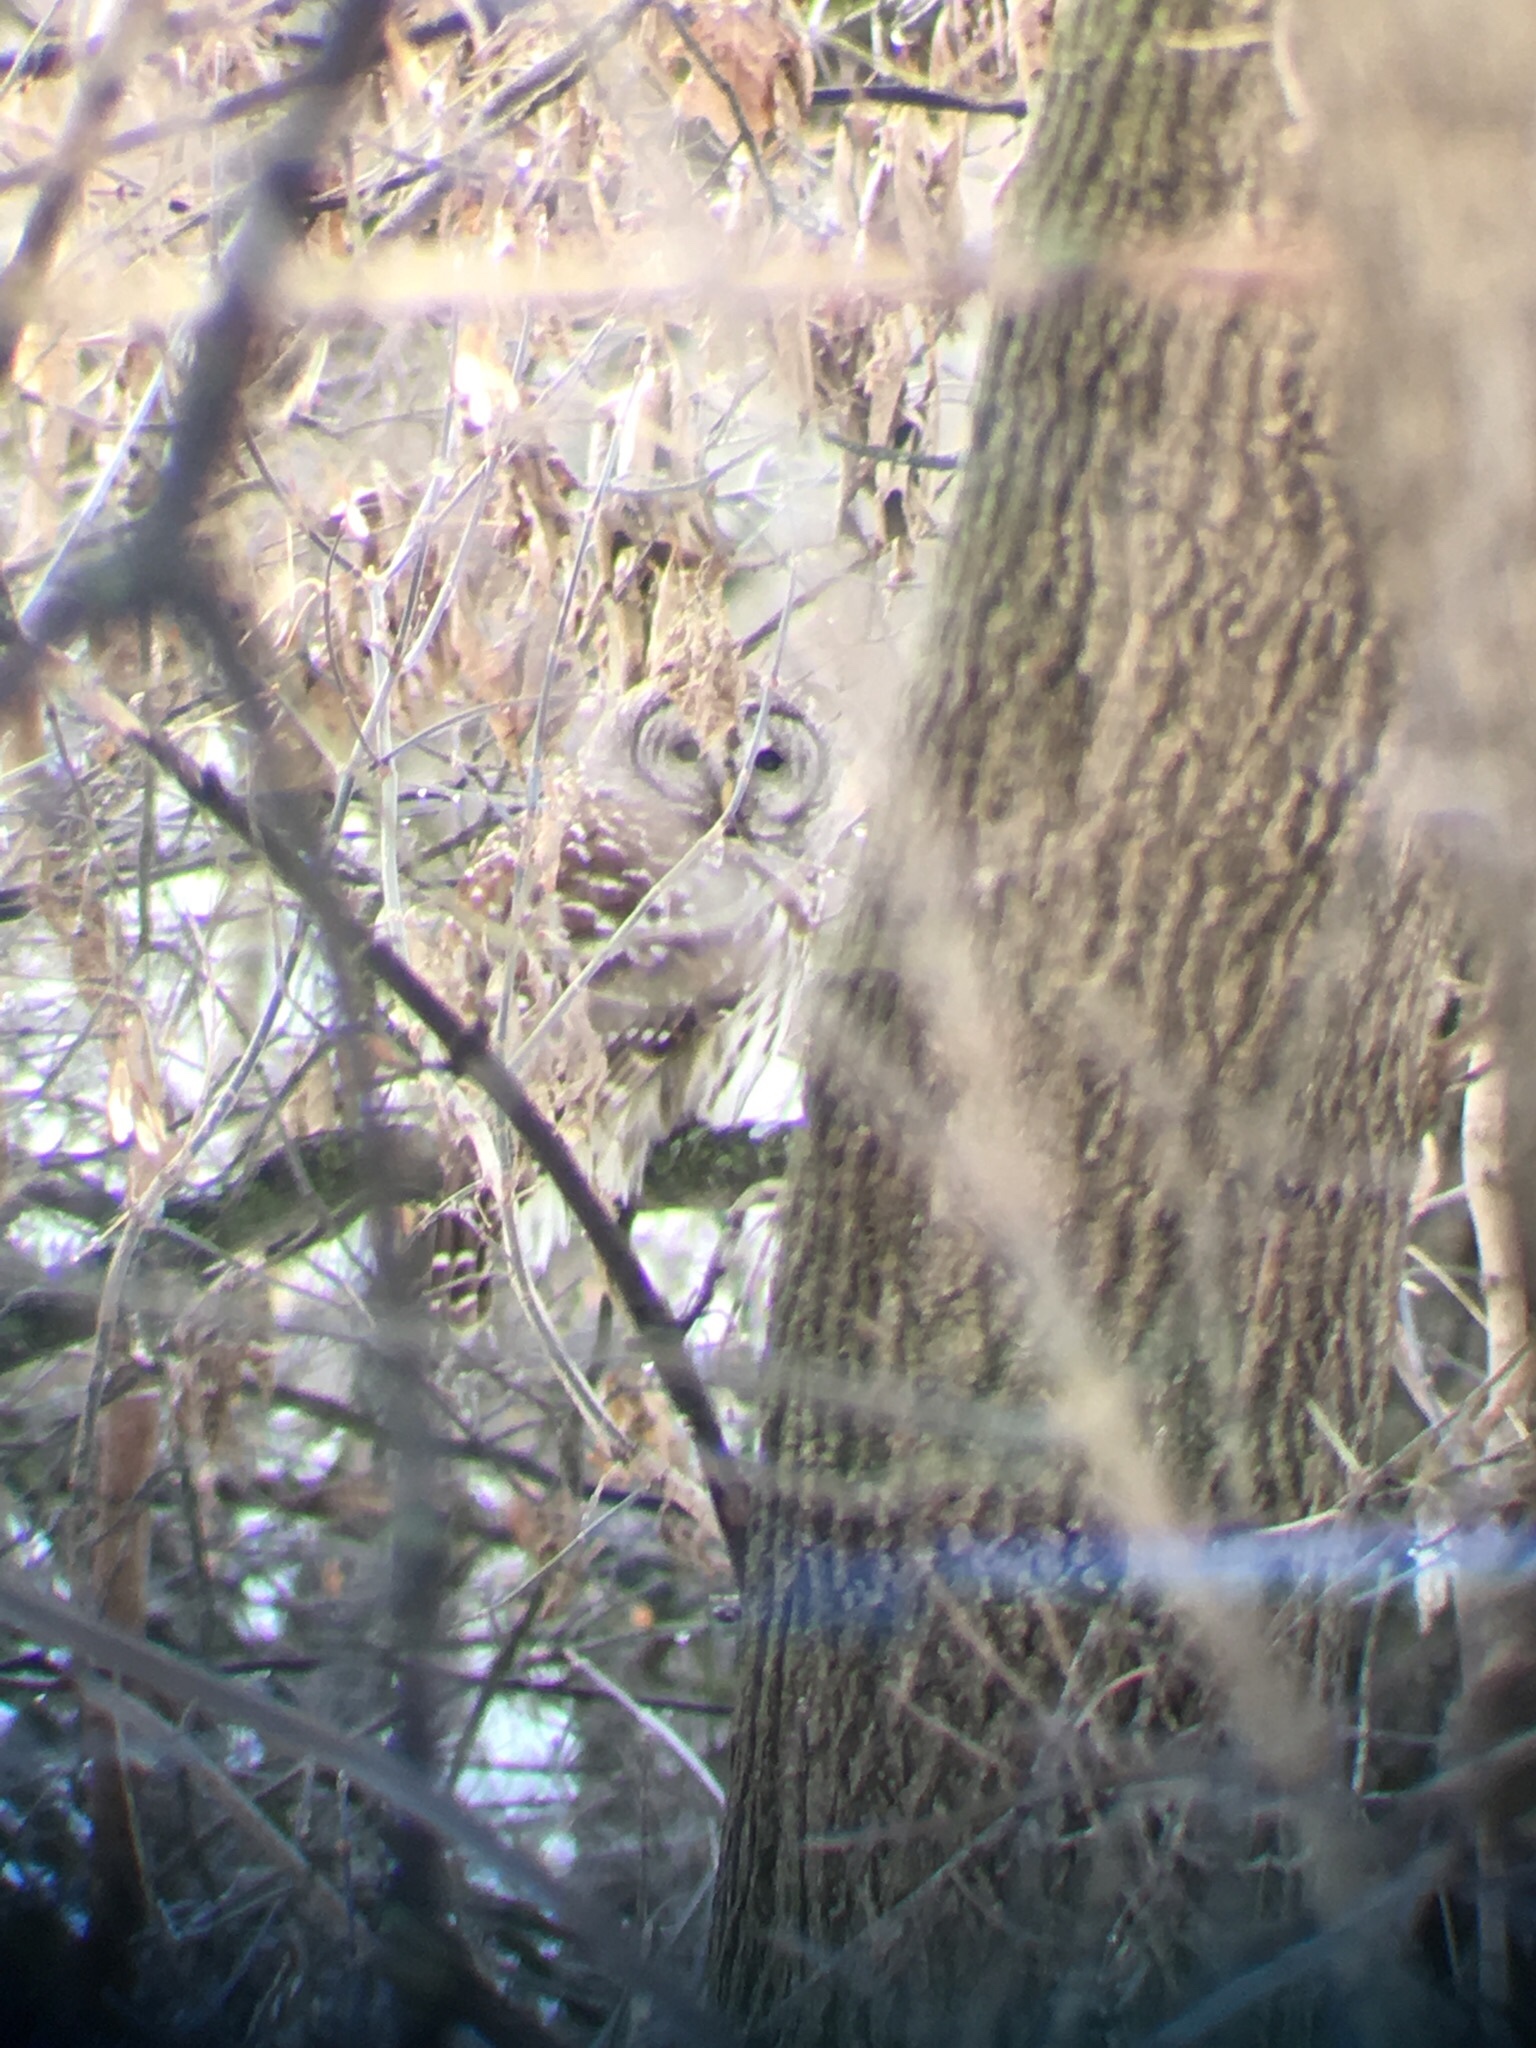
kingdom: Animalia
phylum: Chordata
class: Aves
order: Strigiformes
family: Strigidae
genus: Strix
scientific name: Strix varia
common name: Barred owl
